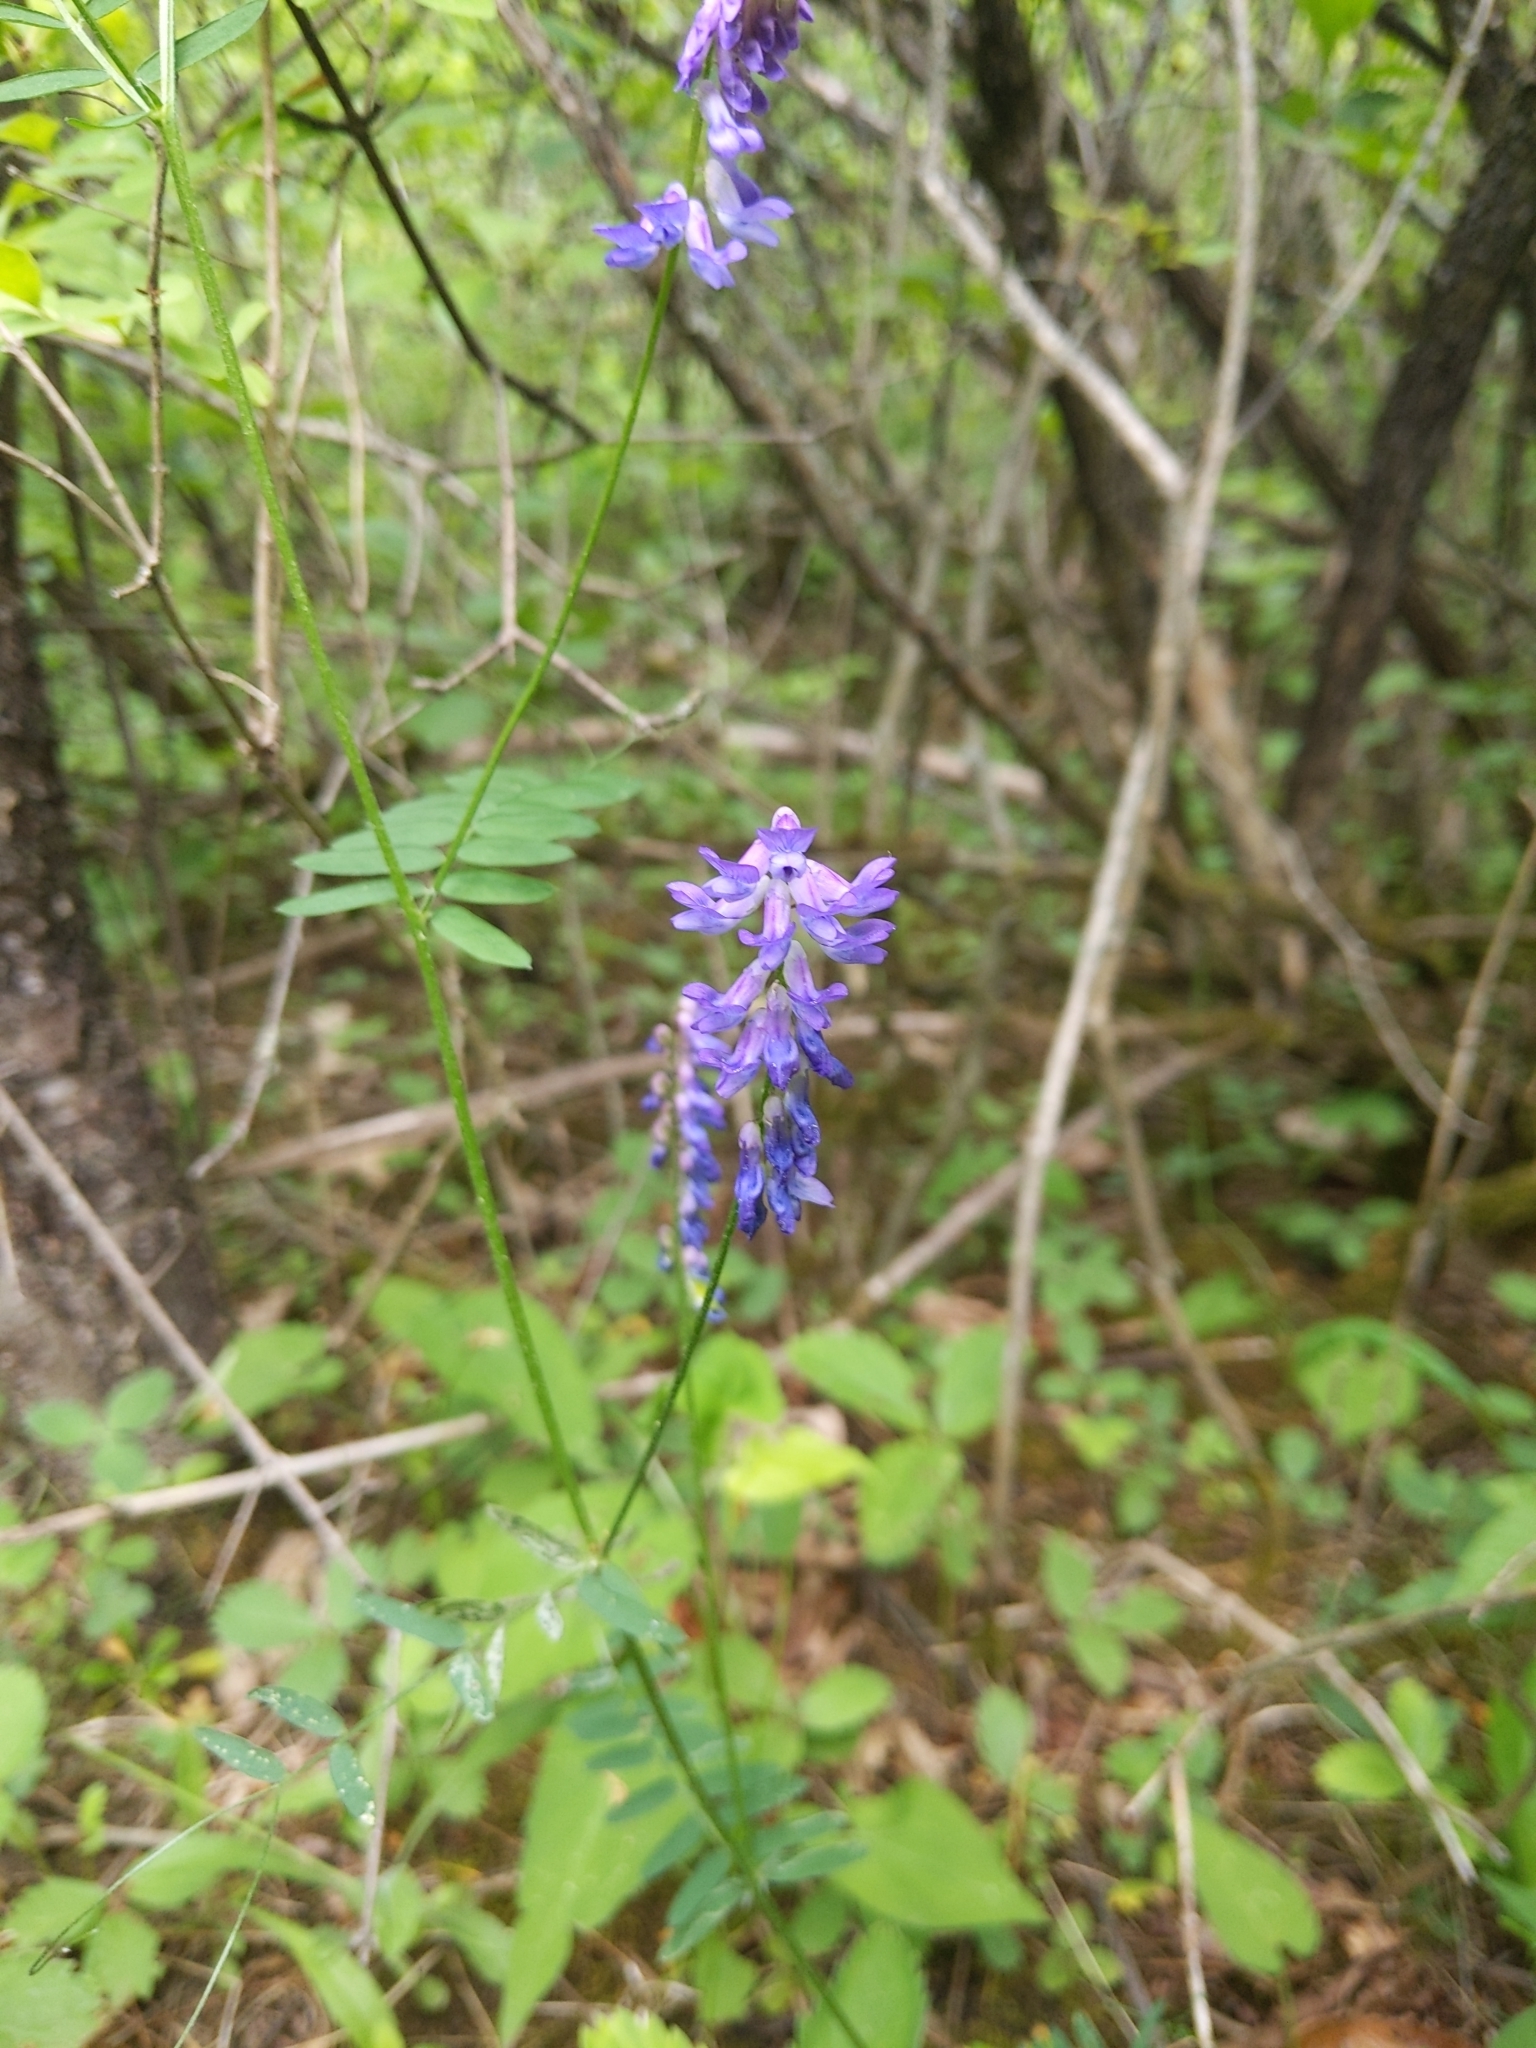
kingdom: Plantae
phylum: Tracheophyta
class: Magnoliopsida
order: Fabales
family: Fabaceae
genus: Vicia
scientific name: Vicia cracca
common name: Bird vetch
